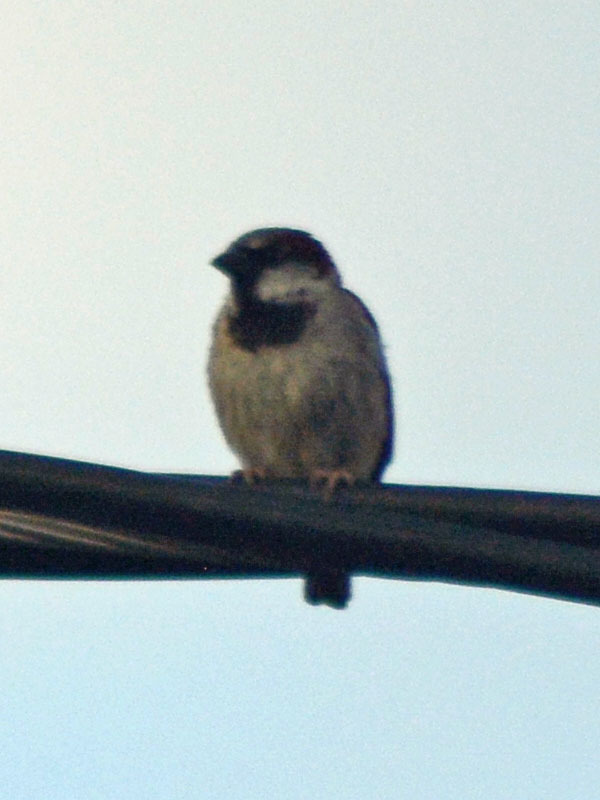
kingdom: Animalia
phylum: Chordata
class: Aves
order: Passeriformes
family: Passeridae
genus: Passer
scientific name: Passer domesticus
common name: House sparrow
